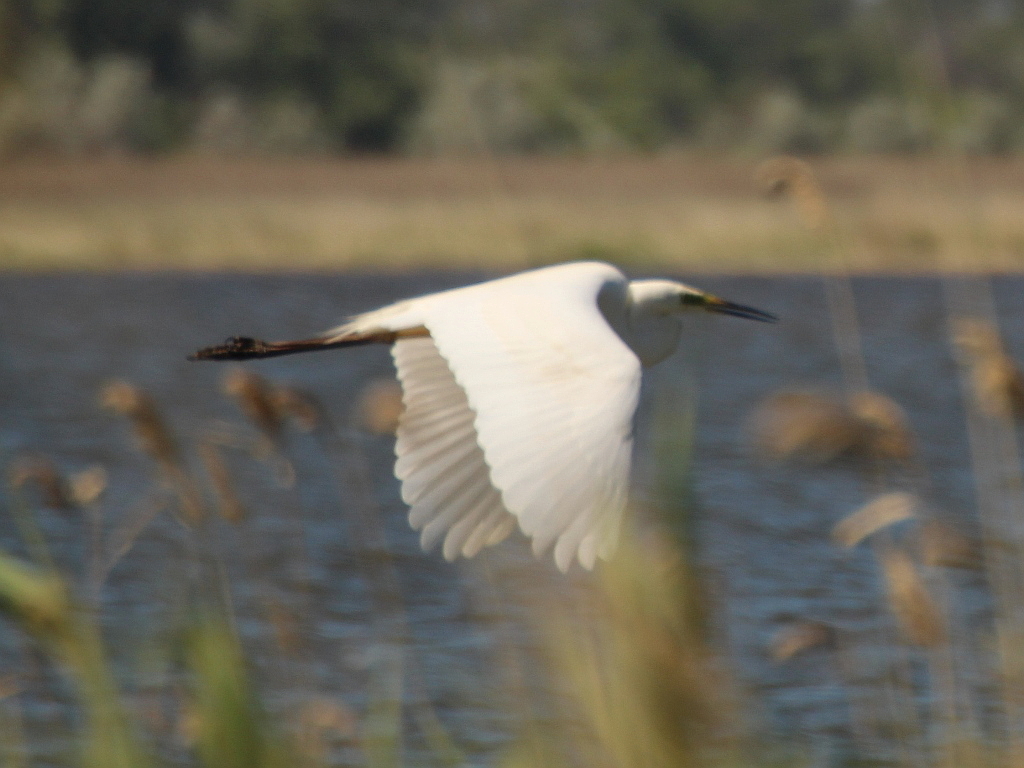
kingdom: Animalia
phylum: Chordata
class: Aves
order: Pelecaniformes
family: Ardeidae
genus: Ardea
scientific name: Ardea alba
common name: Great egret
